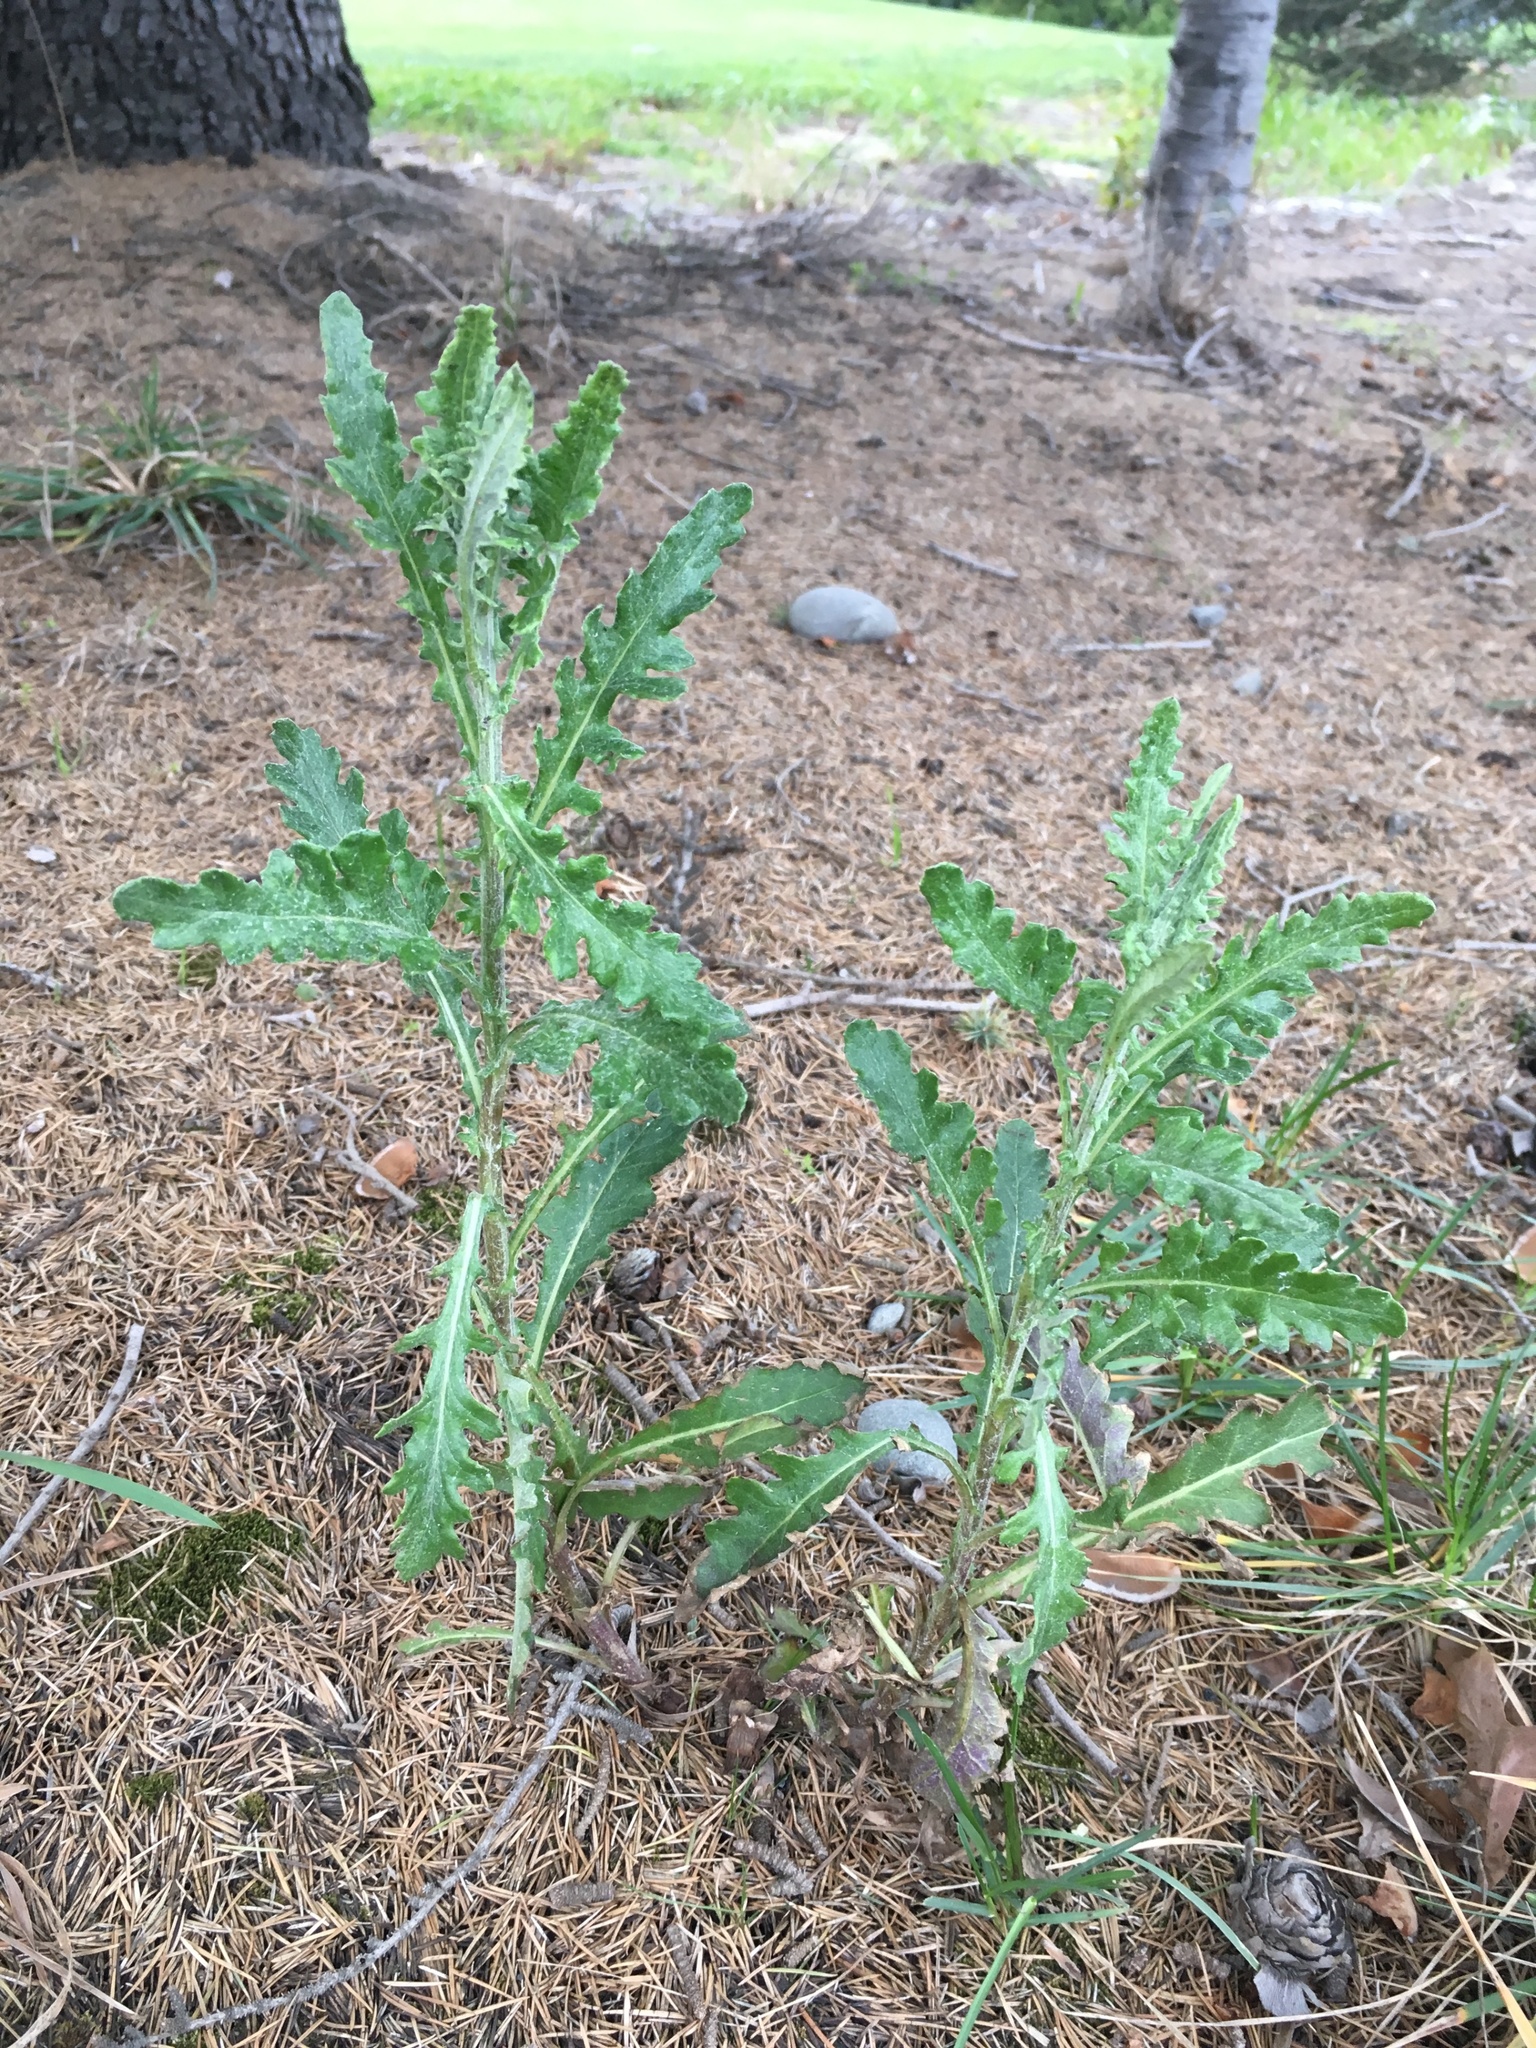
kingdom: Plantae
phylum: Tracheophyta
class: Magnoliopsida
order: Asterales
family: Asteraceae
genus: Senecio
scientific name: Senecio glomeratus
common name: Cutleaf burnweed
